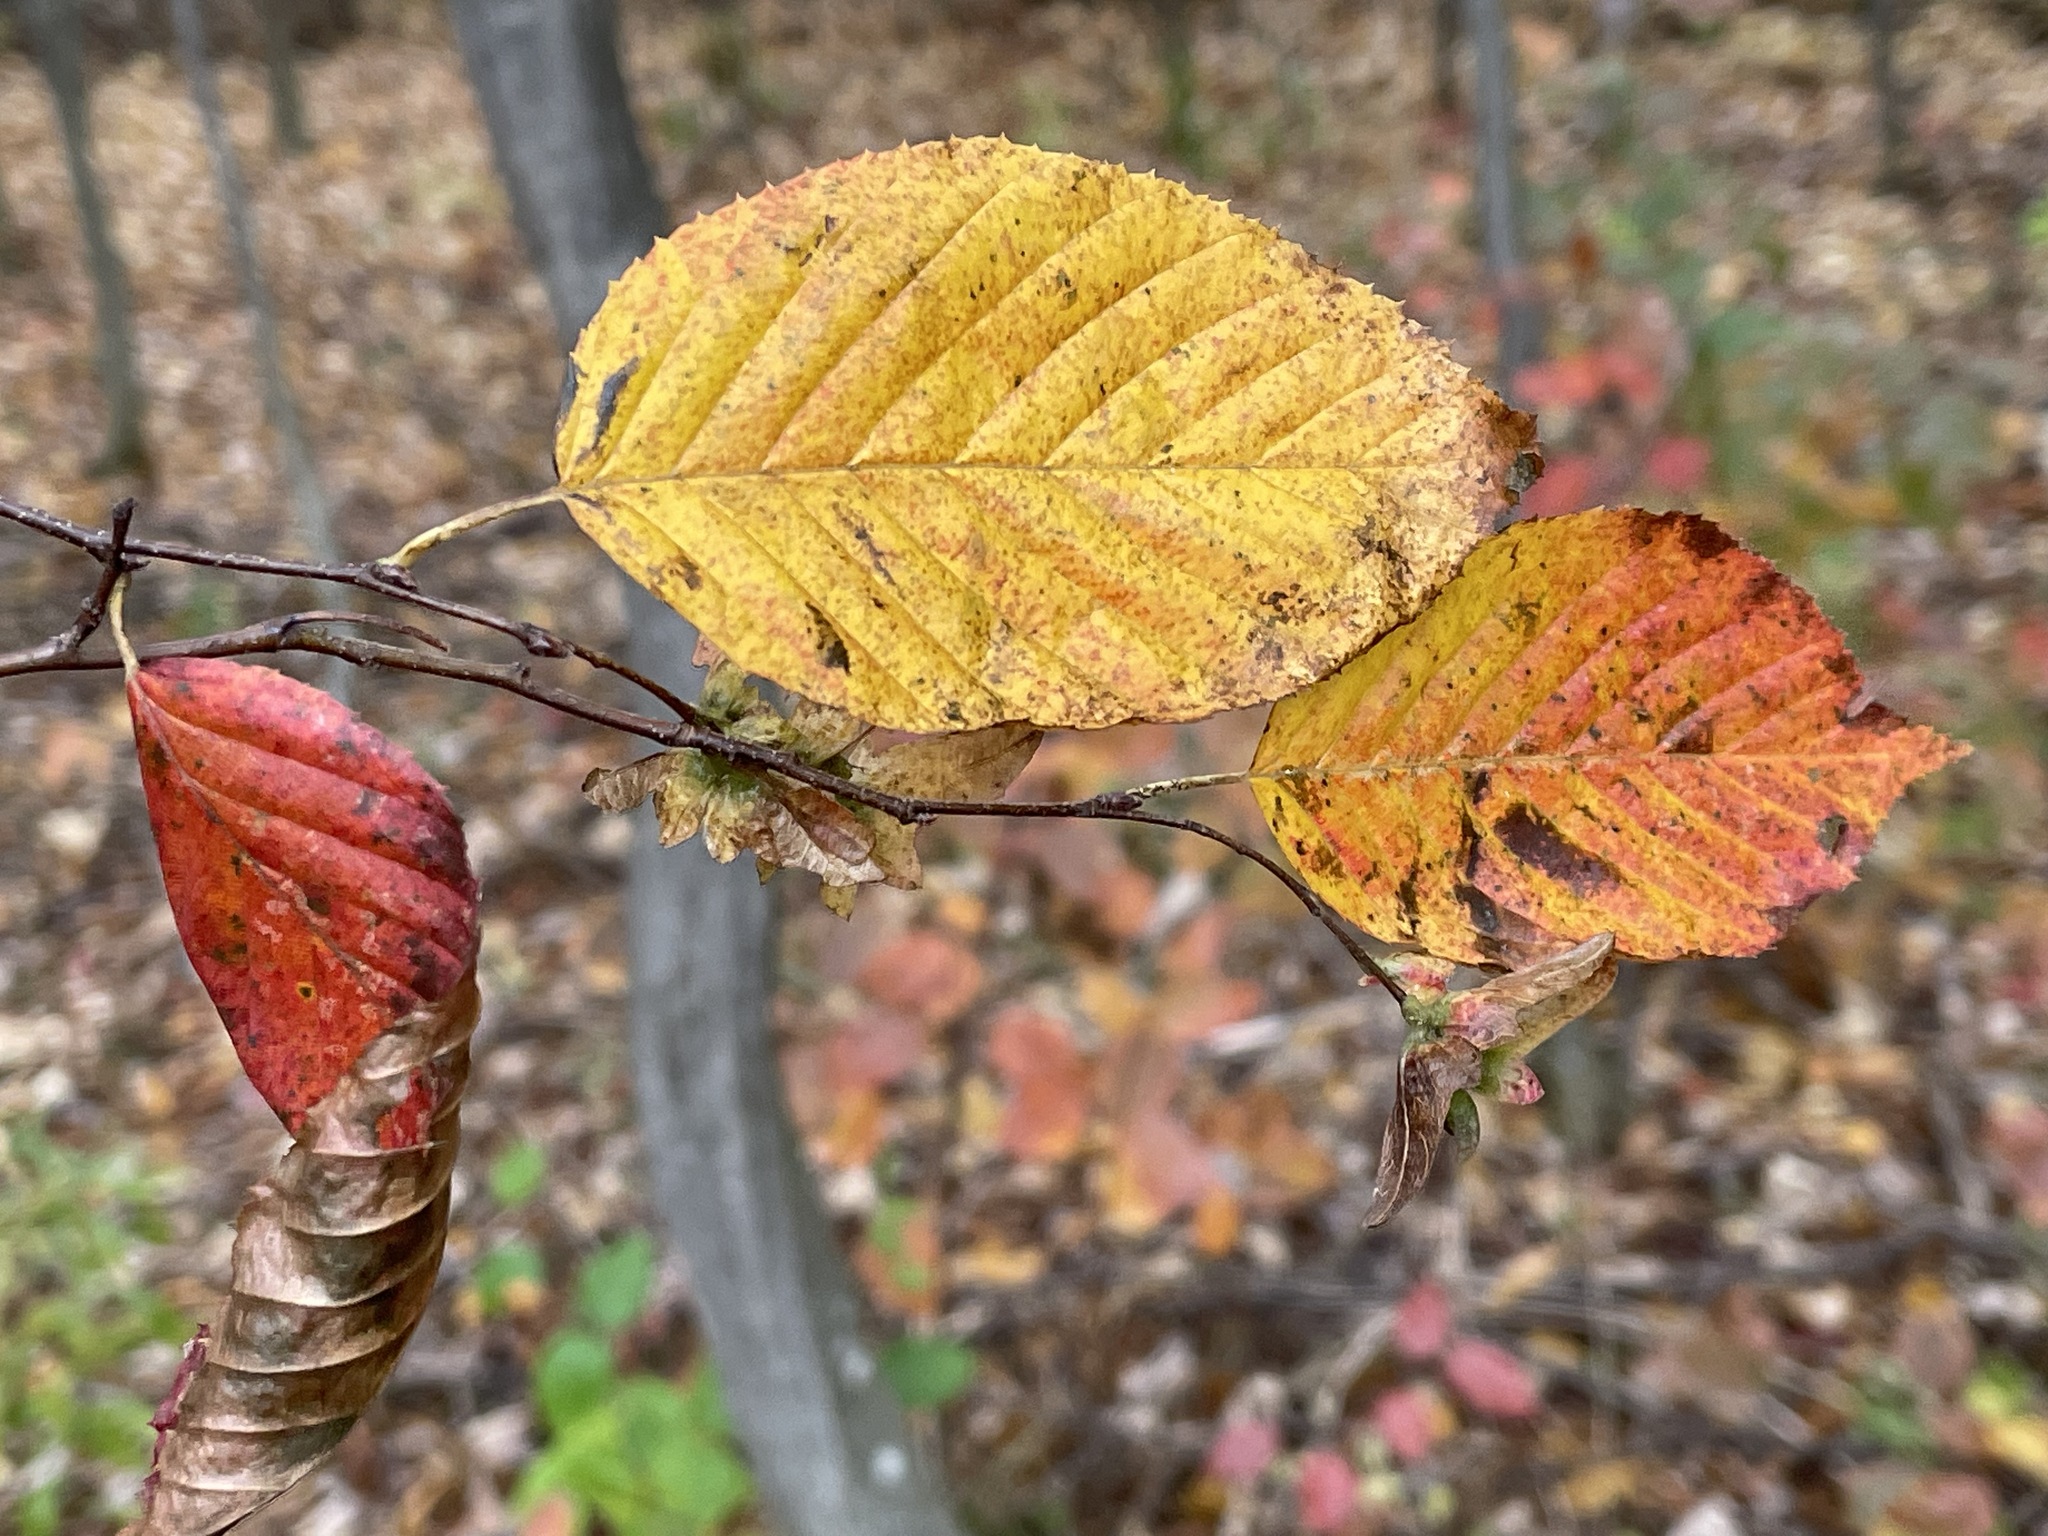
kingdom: Plantae
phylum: Tracheophyta
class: Magnoliopsida
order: Fagales
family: Betulaceae
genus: Carpinus
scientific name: Carpinus caroliniana
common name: American hornbeam
